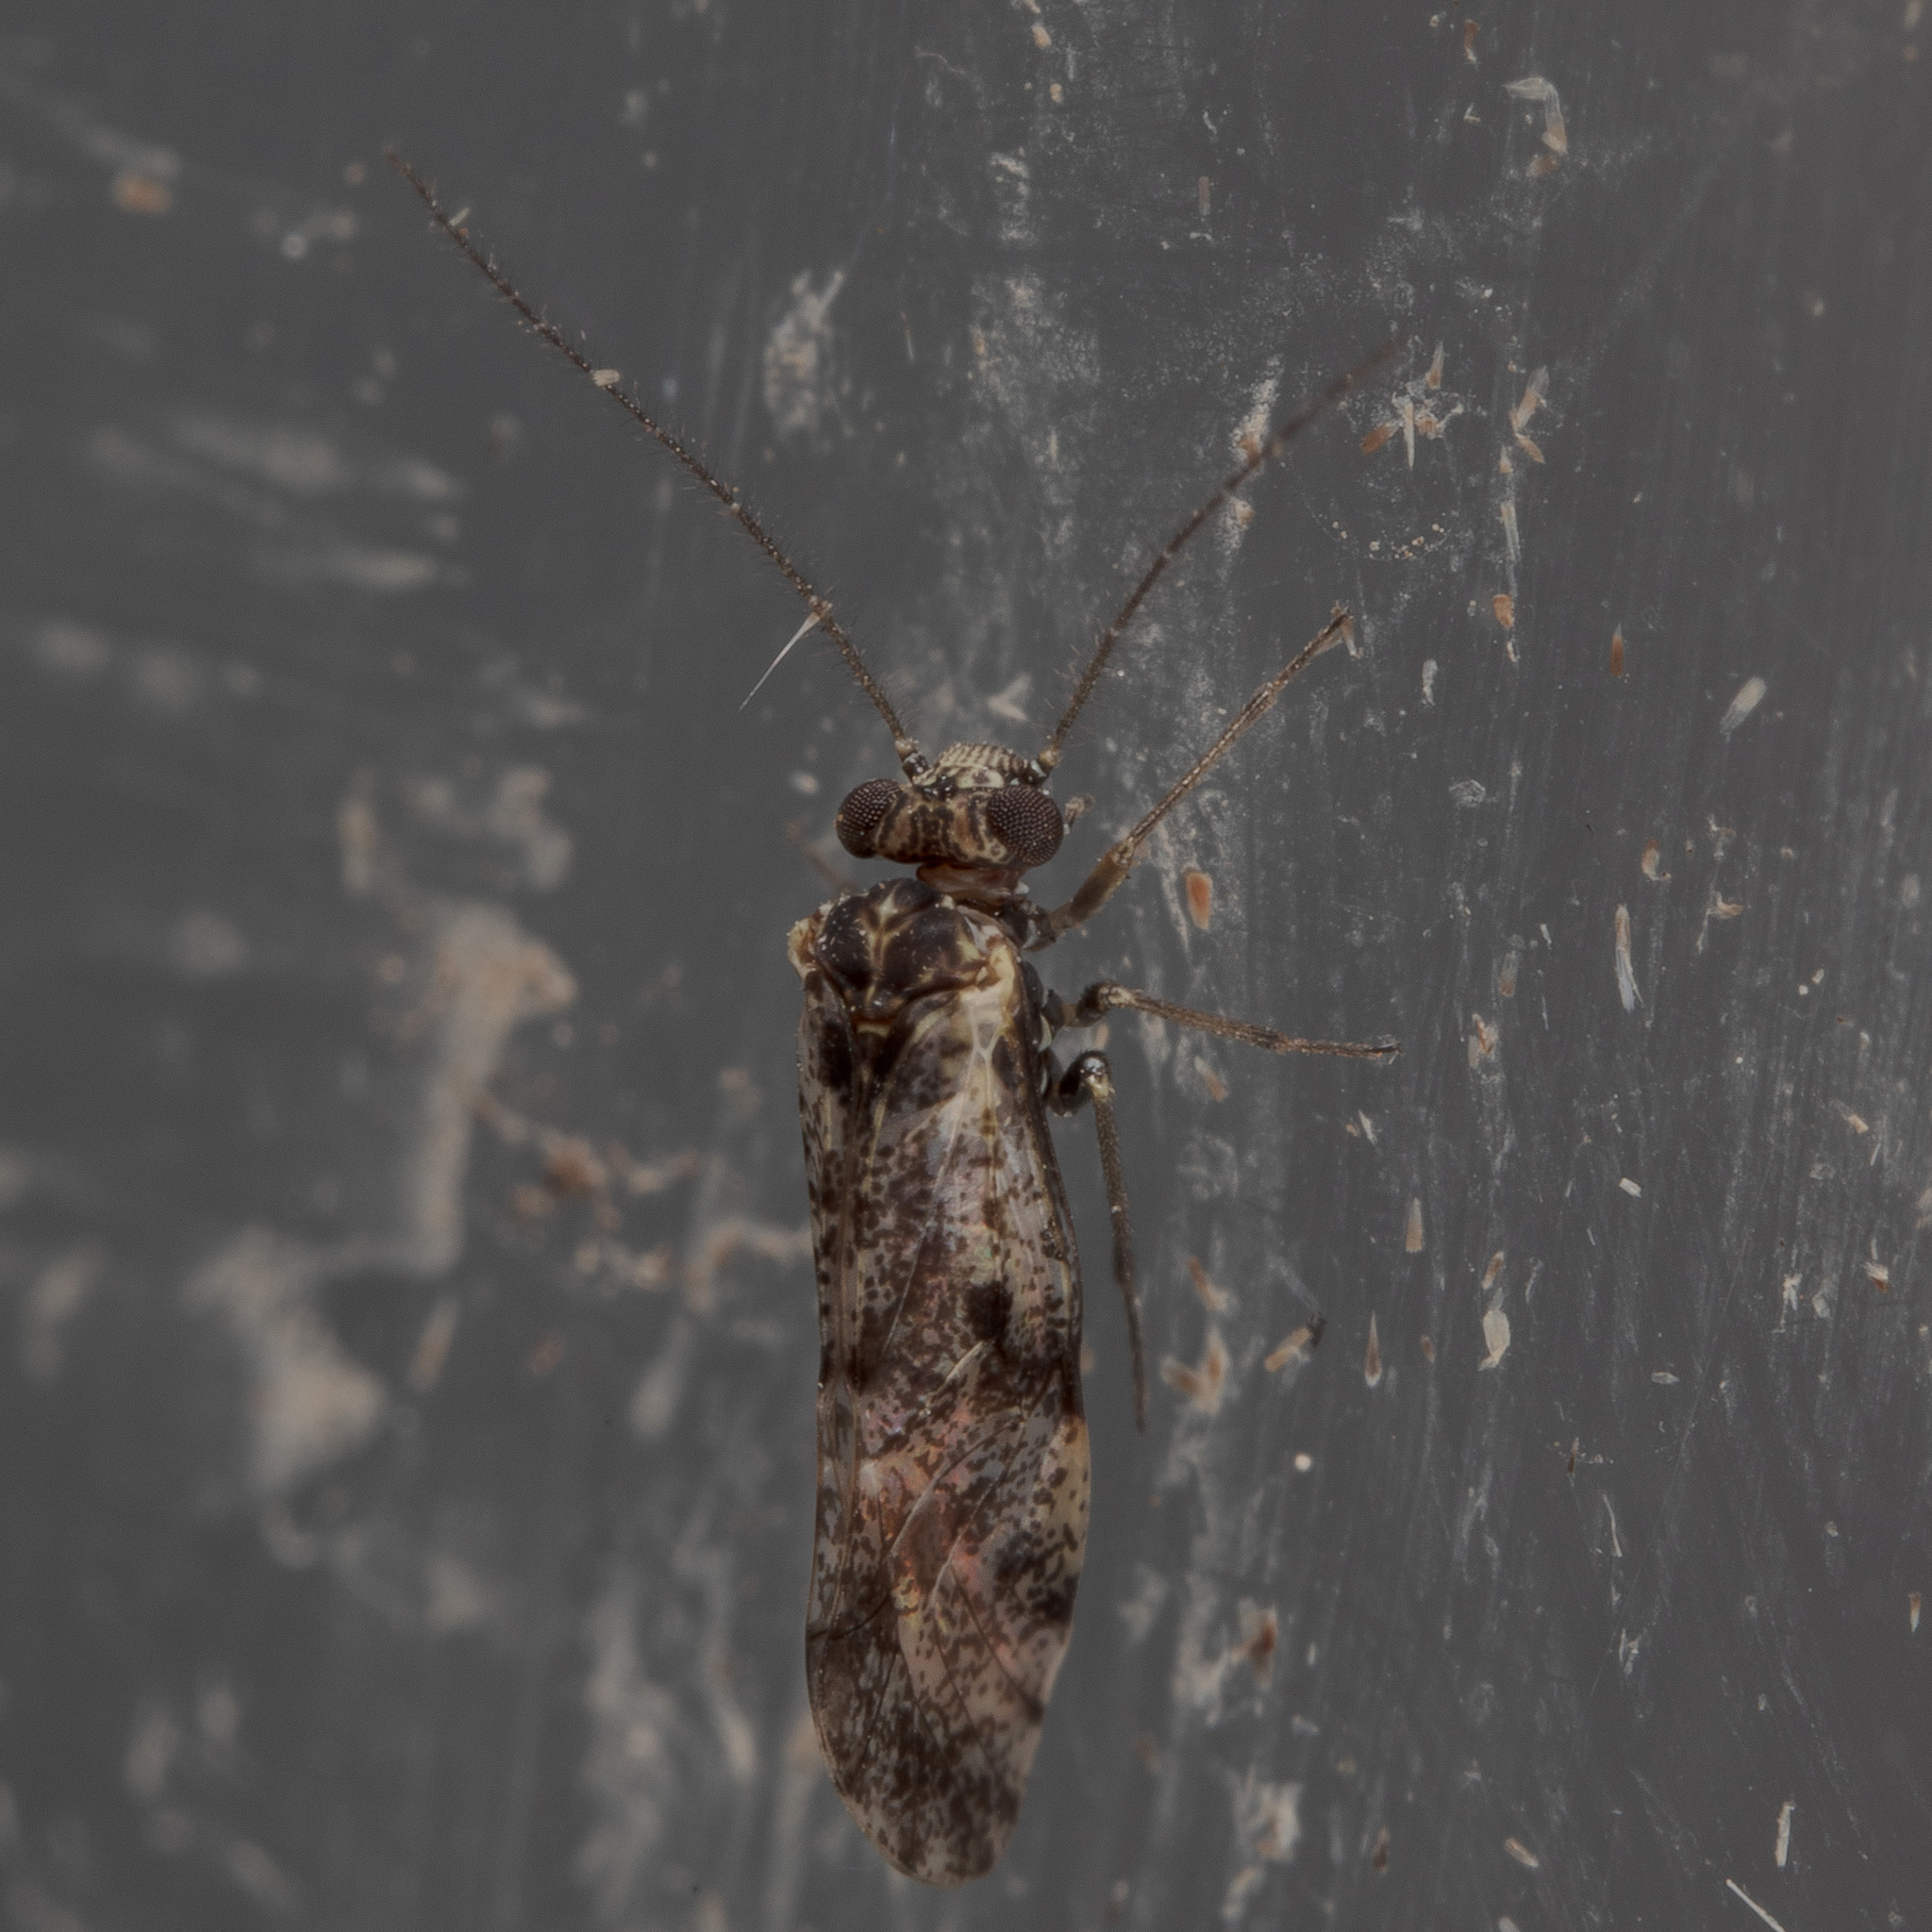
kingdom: Animalia
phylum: Arthropoda
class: Insecta
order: Psocodea
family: Psocidae
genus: Loensia
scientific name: Loensia moesta
